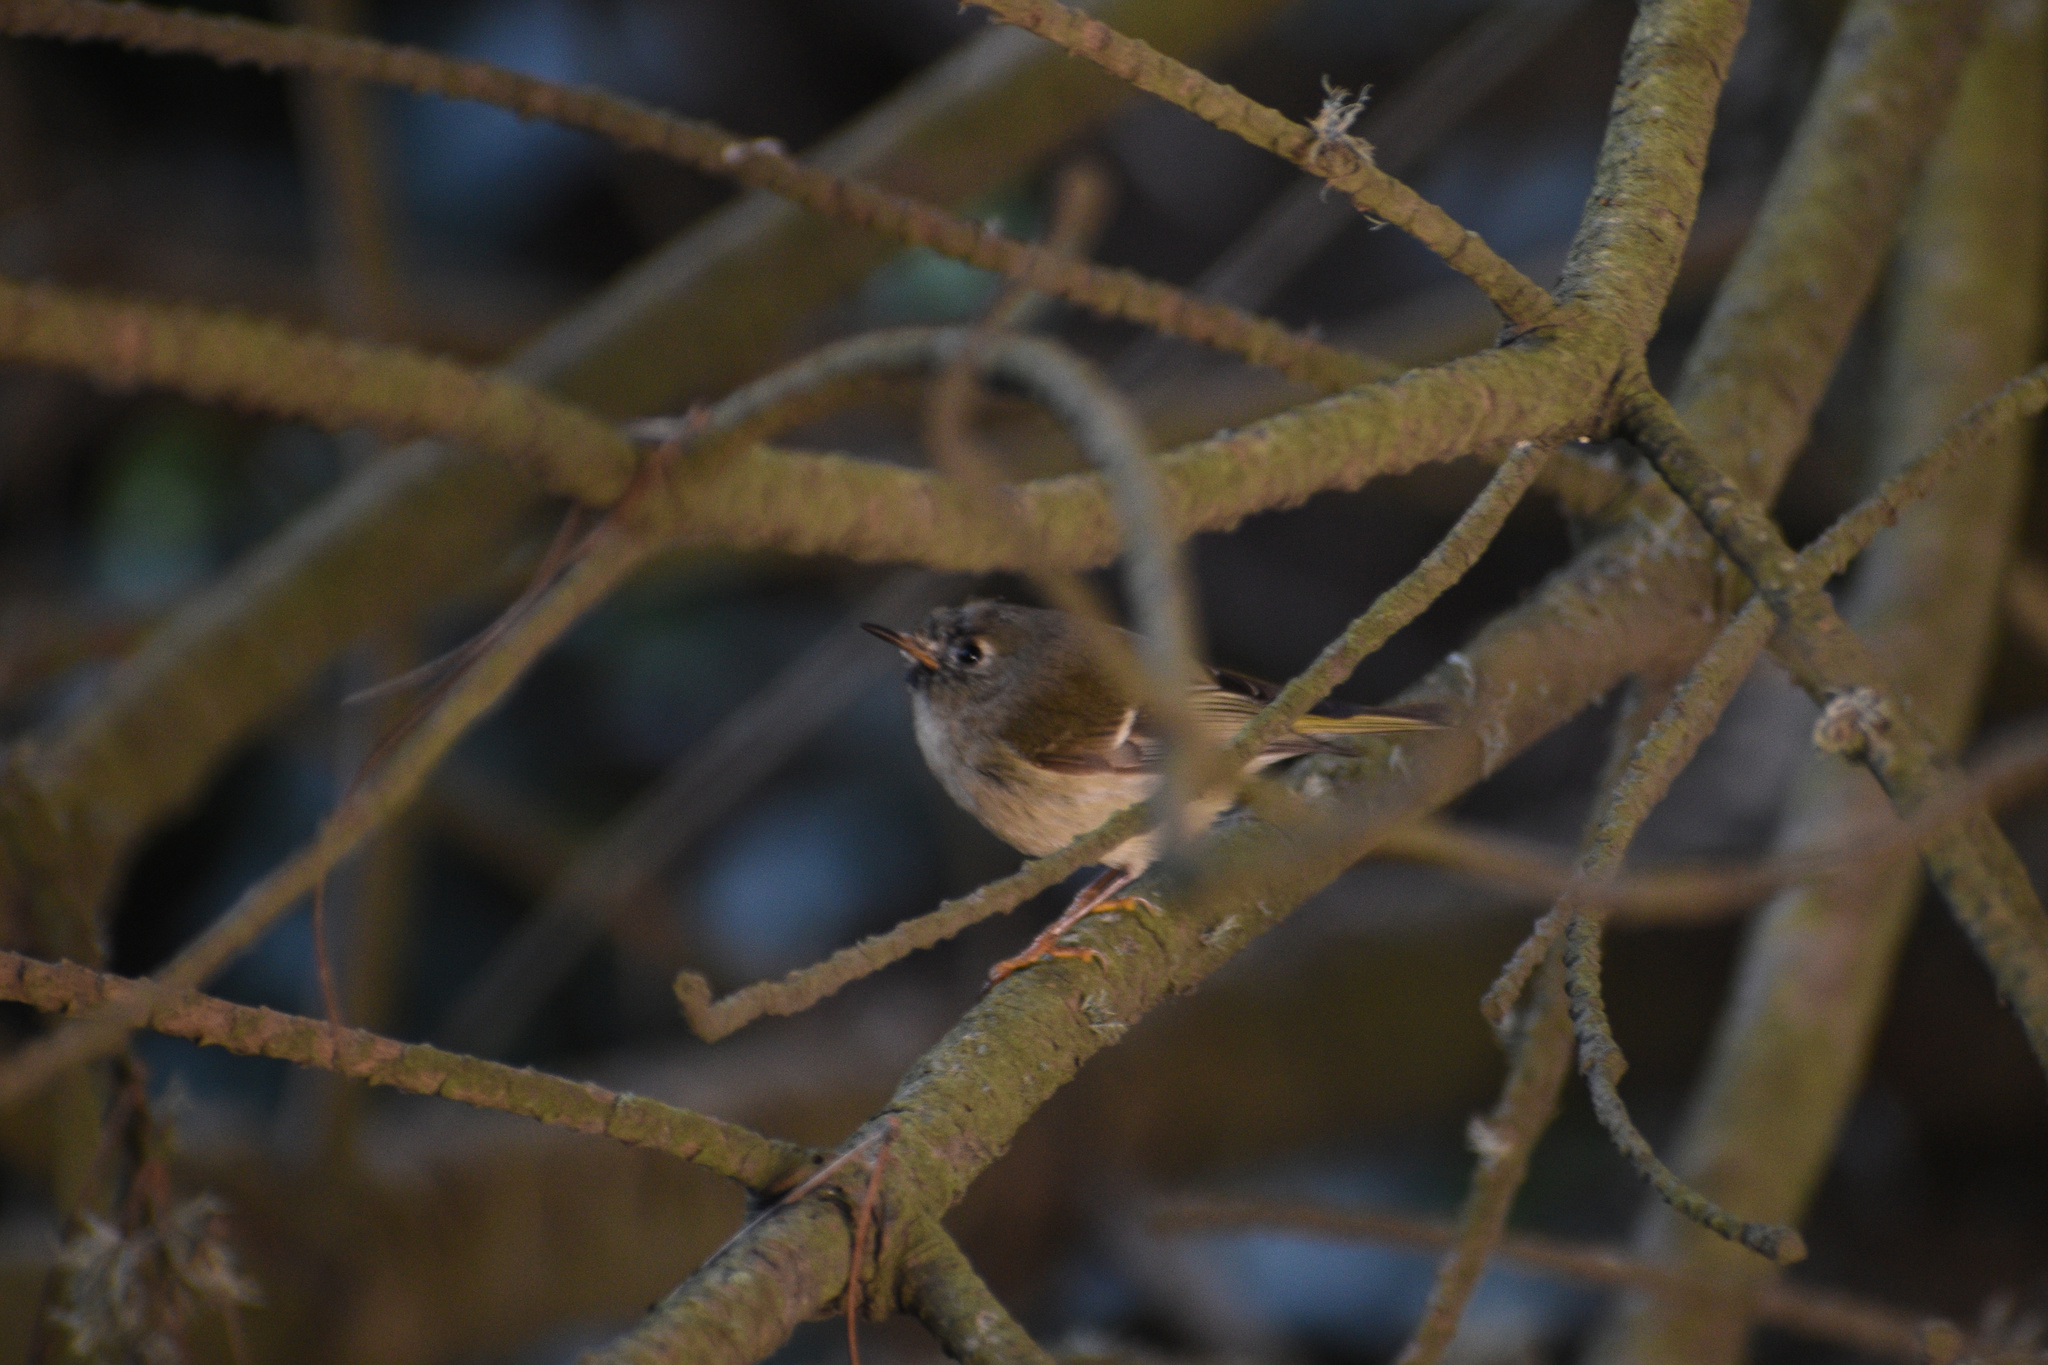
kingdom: Animalia
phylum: Chordata
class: Aves
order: Passeriformes
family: Regulidae
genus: Regulus
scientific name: Regulus calendula
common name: Ruby-crowned kinglet
